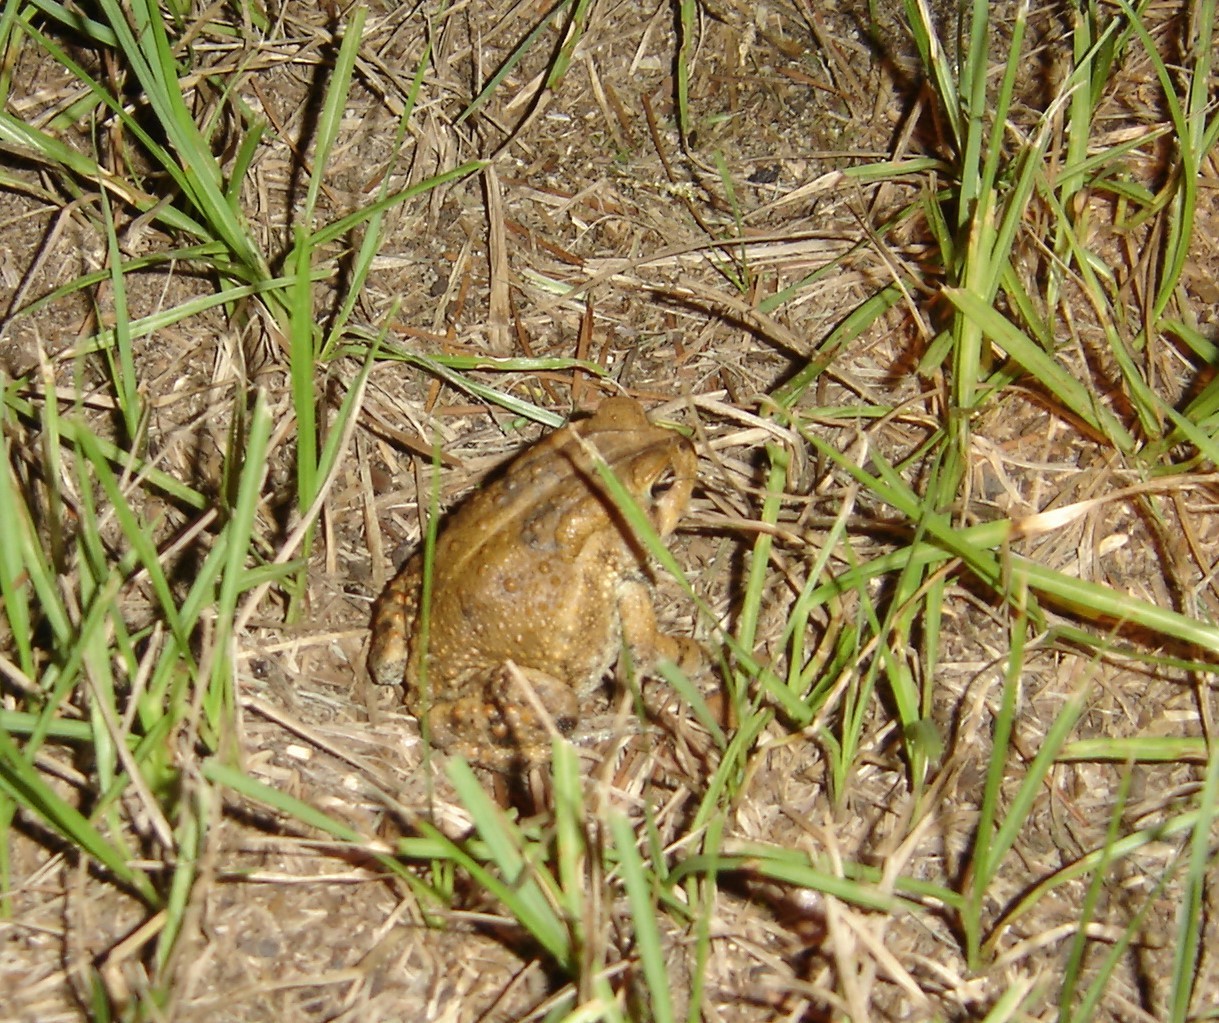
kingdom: Animalia
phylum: Chordata
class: Amphibia
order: Anura
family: Bufonidae
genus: Anaxyrus
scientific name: Anaxyrus terrestris
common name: Southern toad
